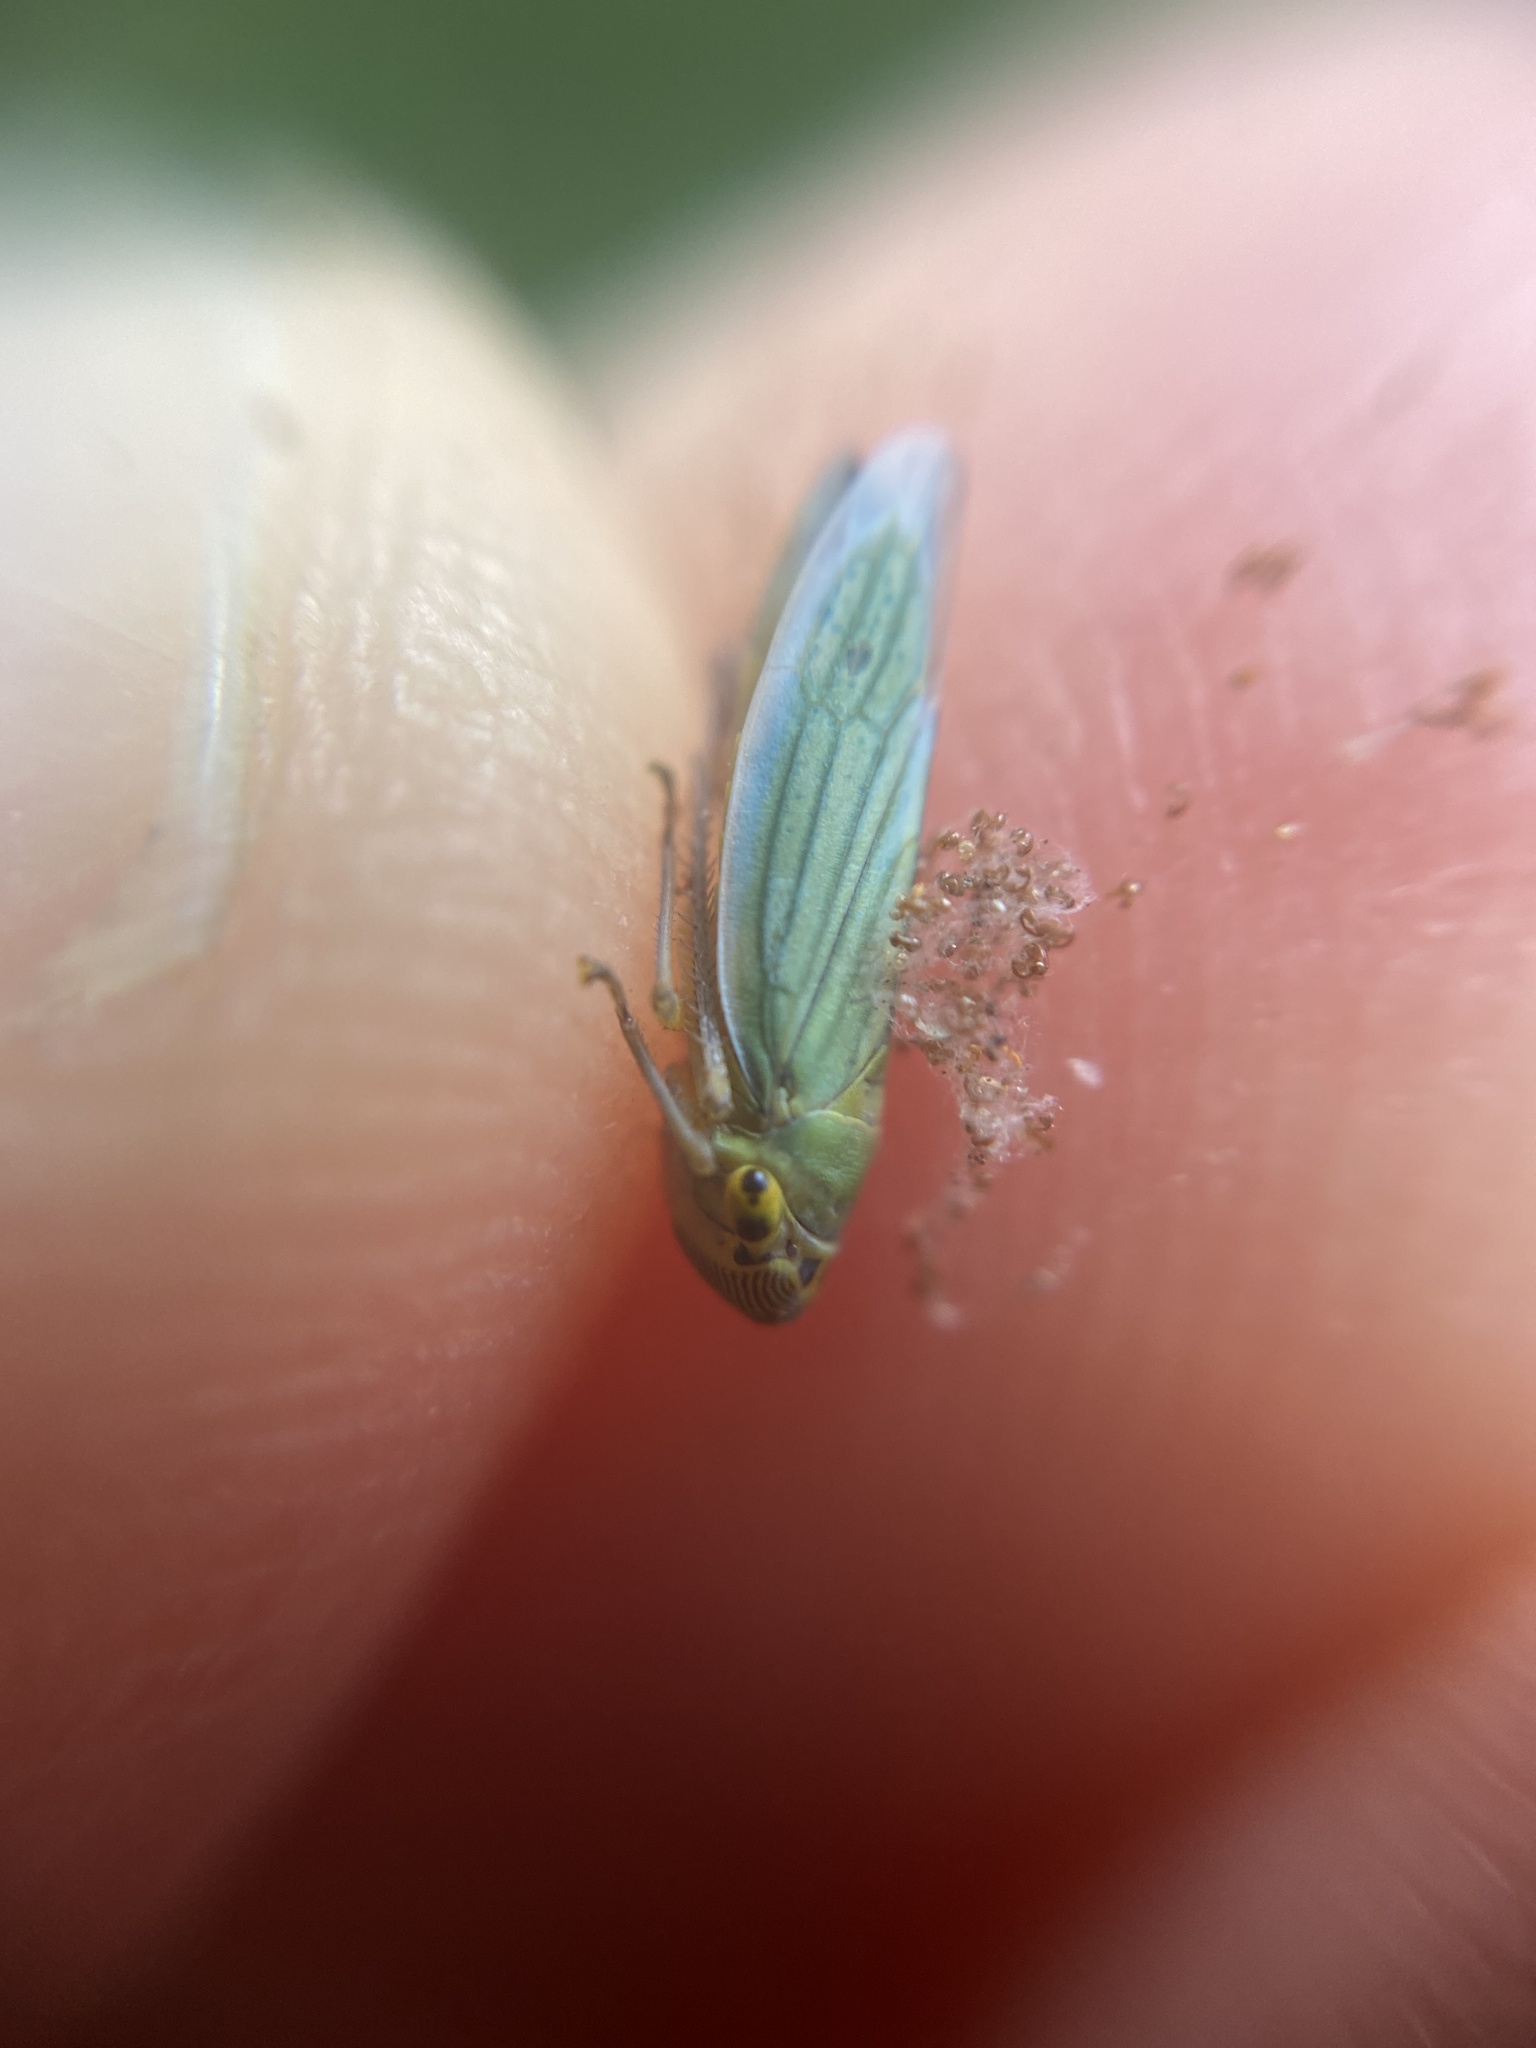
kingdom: Animalia
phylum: Arthropoda
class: Insecta
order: Hemiptera
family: Cicadellidae
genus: Cicadella
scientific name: Cicadella viridis
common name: Leafhopper
